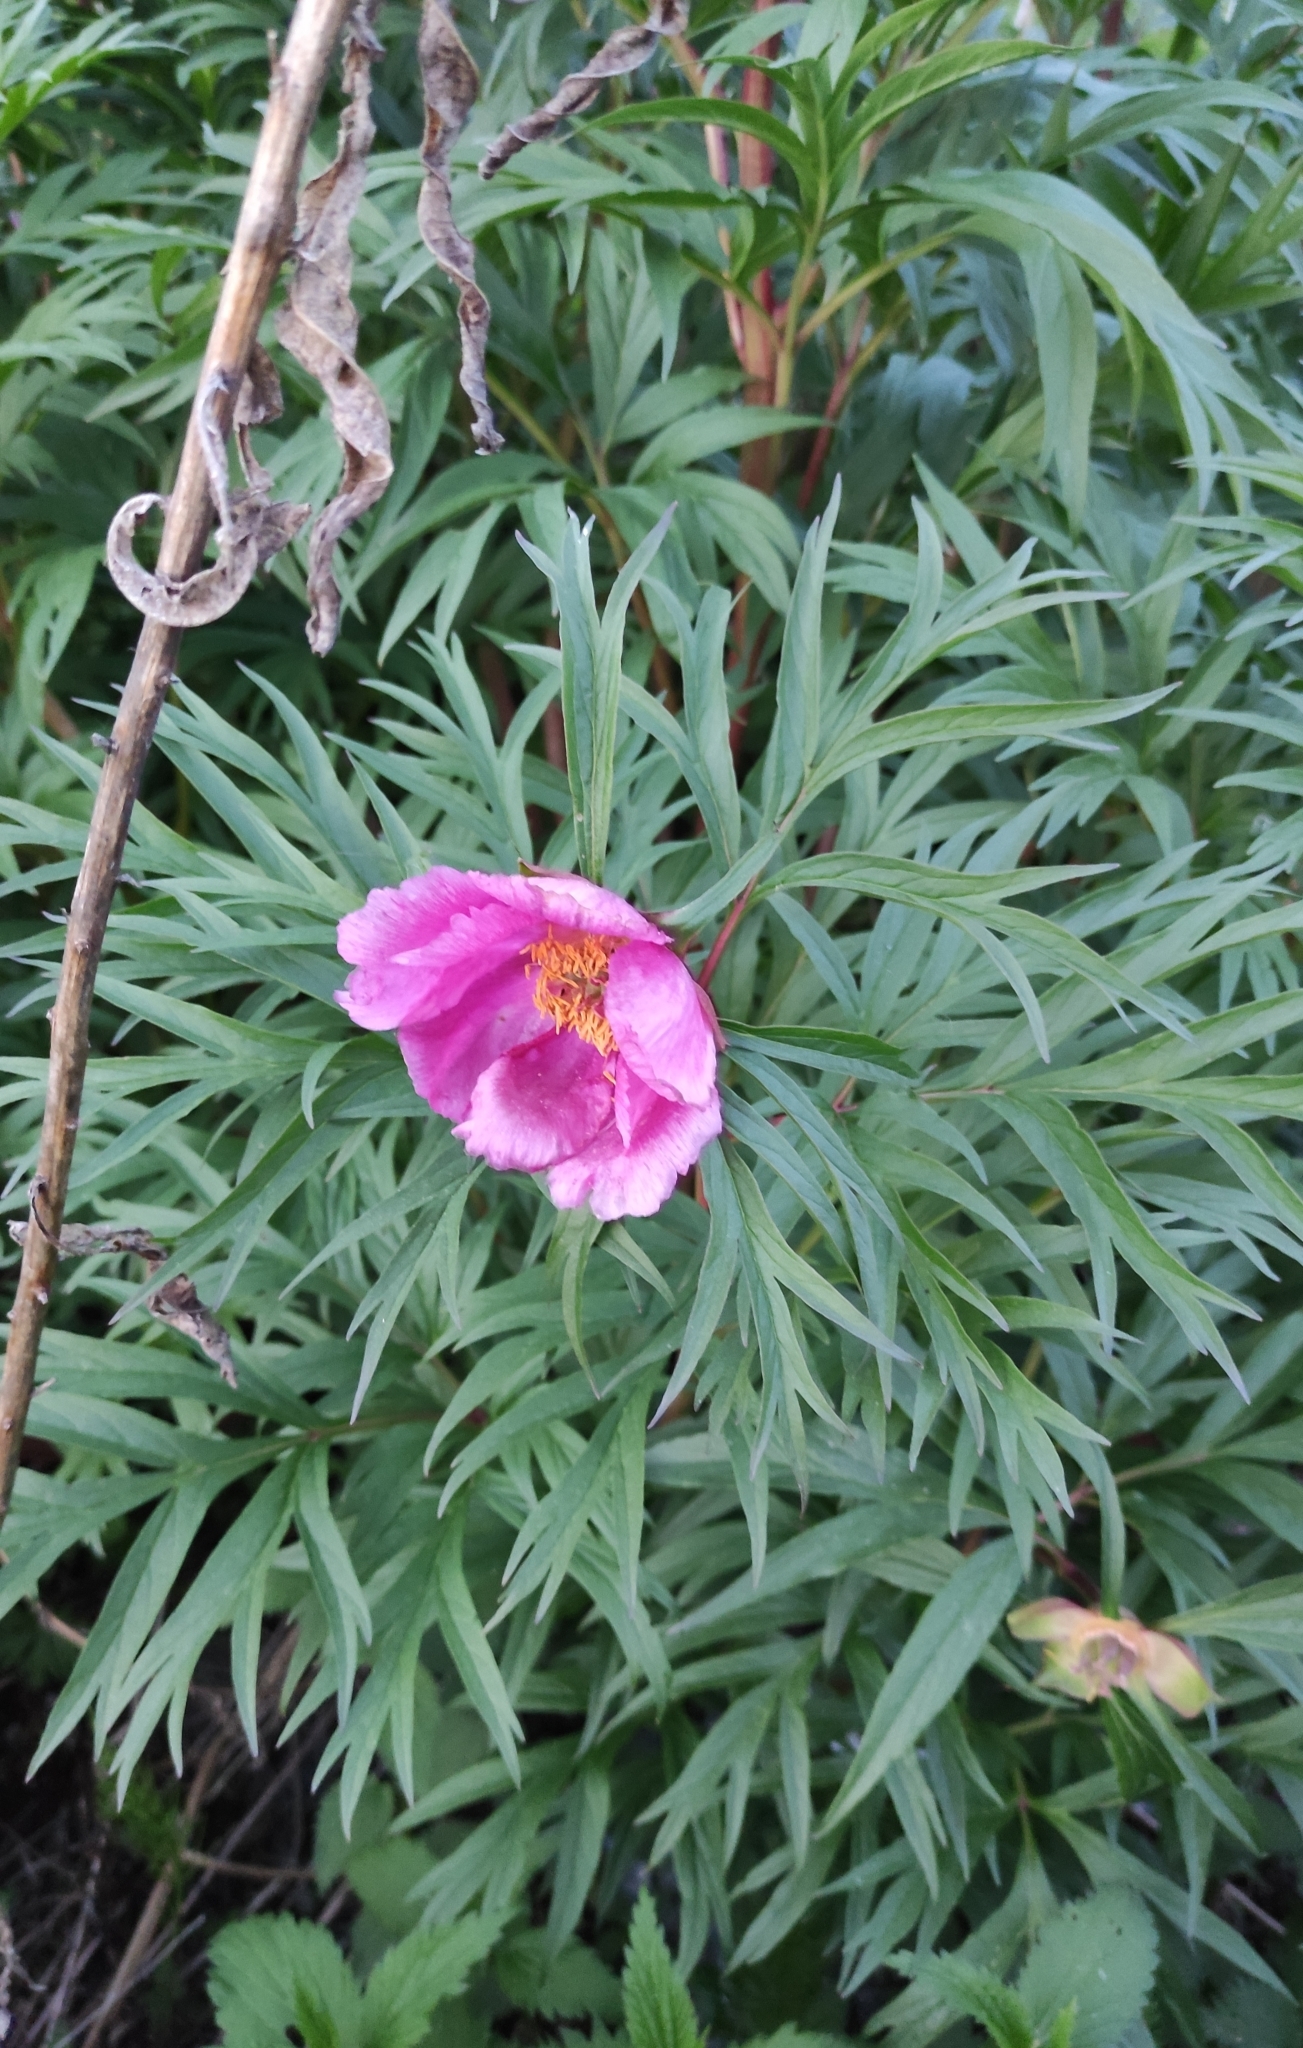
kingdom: Plantae
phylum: Tracheophyta
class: Magnoliopsida
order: Saxifragales
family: Paeoniaceae
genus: Paeonia
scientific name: Paeonia anomala
